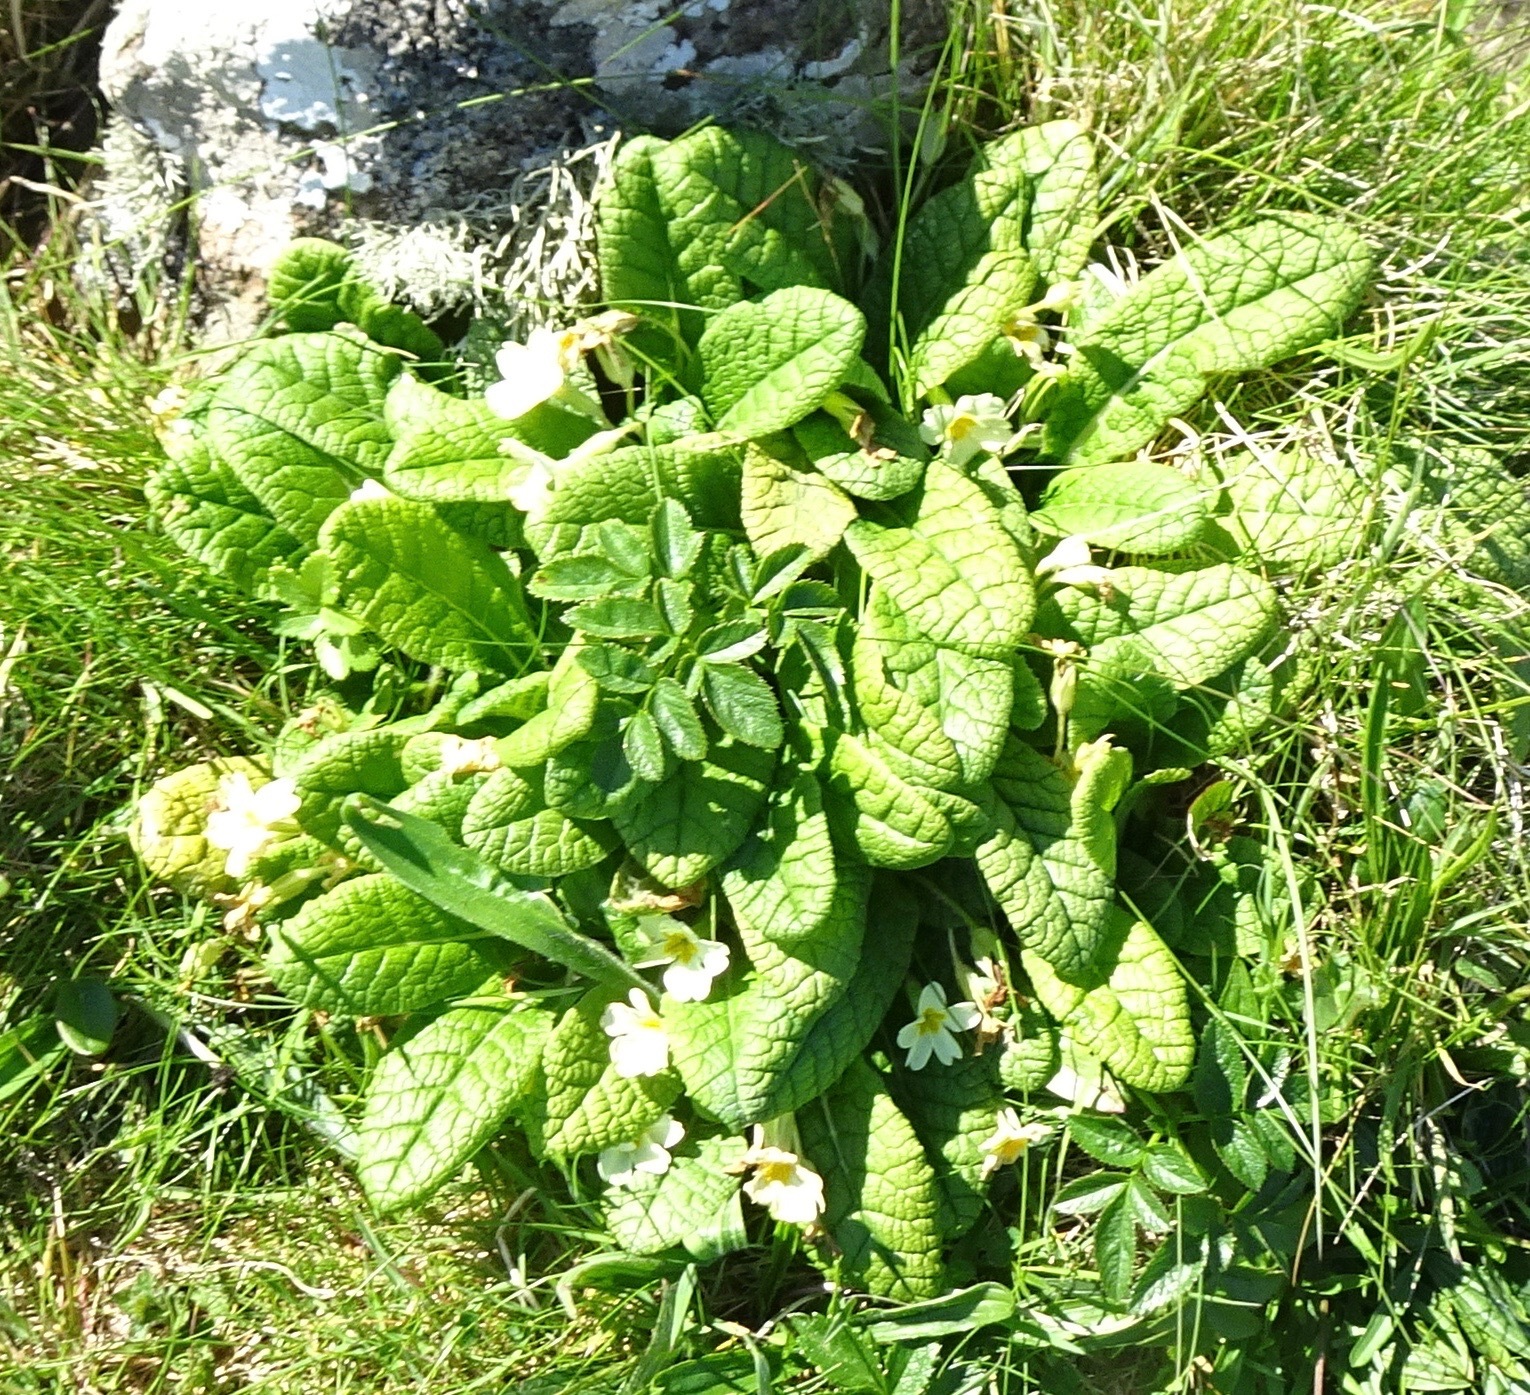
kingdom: Plantae
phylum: Tracheophyta
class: Magnoliopsida
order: Ericales
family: Primulaceae
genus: Primula
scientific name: Primula vulgaris
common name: Primrose
